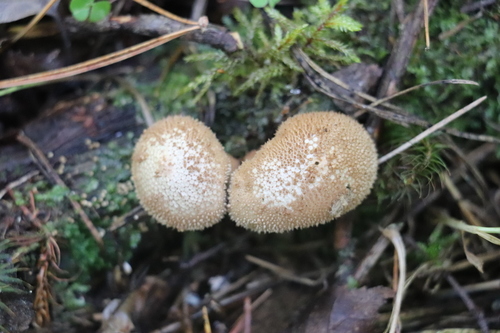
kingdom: Fungi
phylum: Basidiomycota
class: Agaricomycetes
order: Agaricales
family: Lycoperdaceae
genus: Lycoperdon
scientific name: Lycoperdon perlatum
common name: Common puffball
